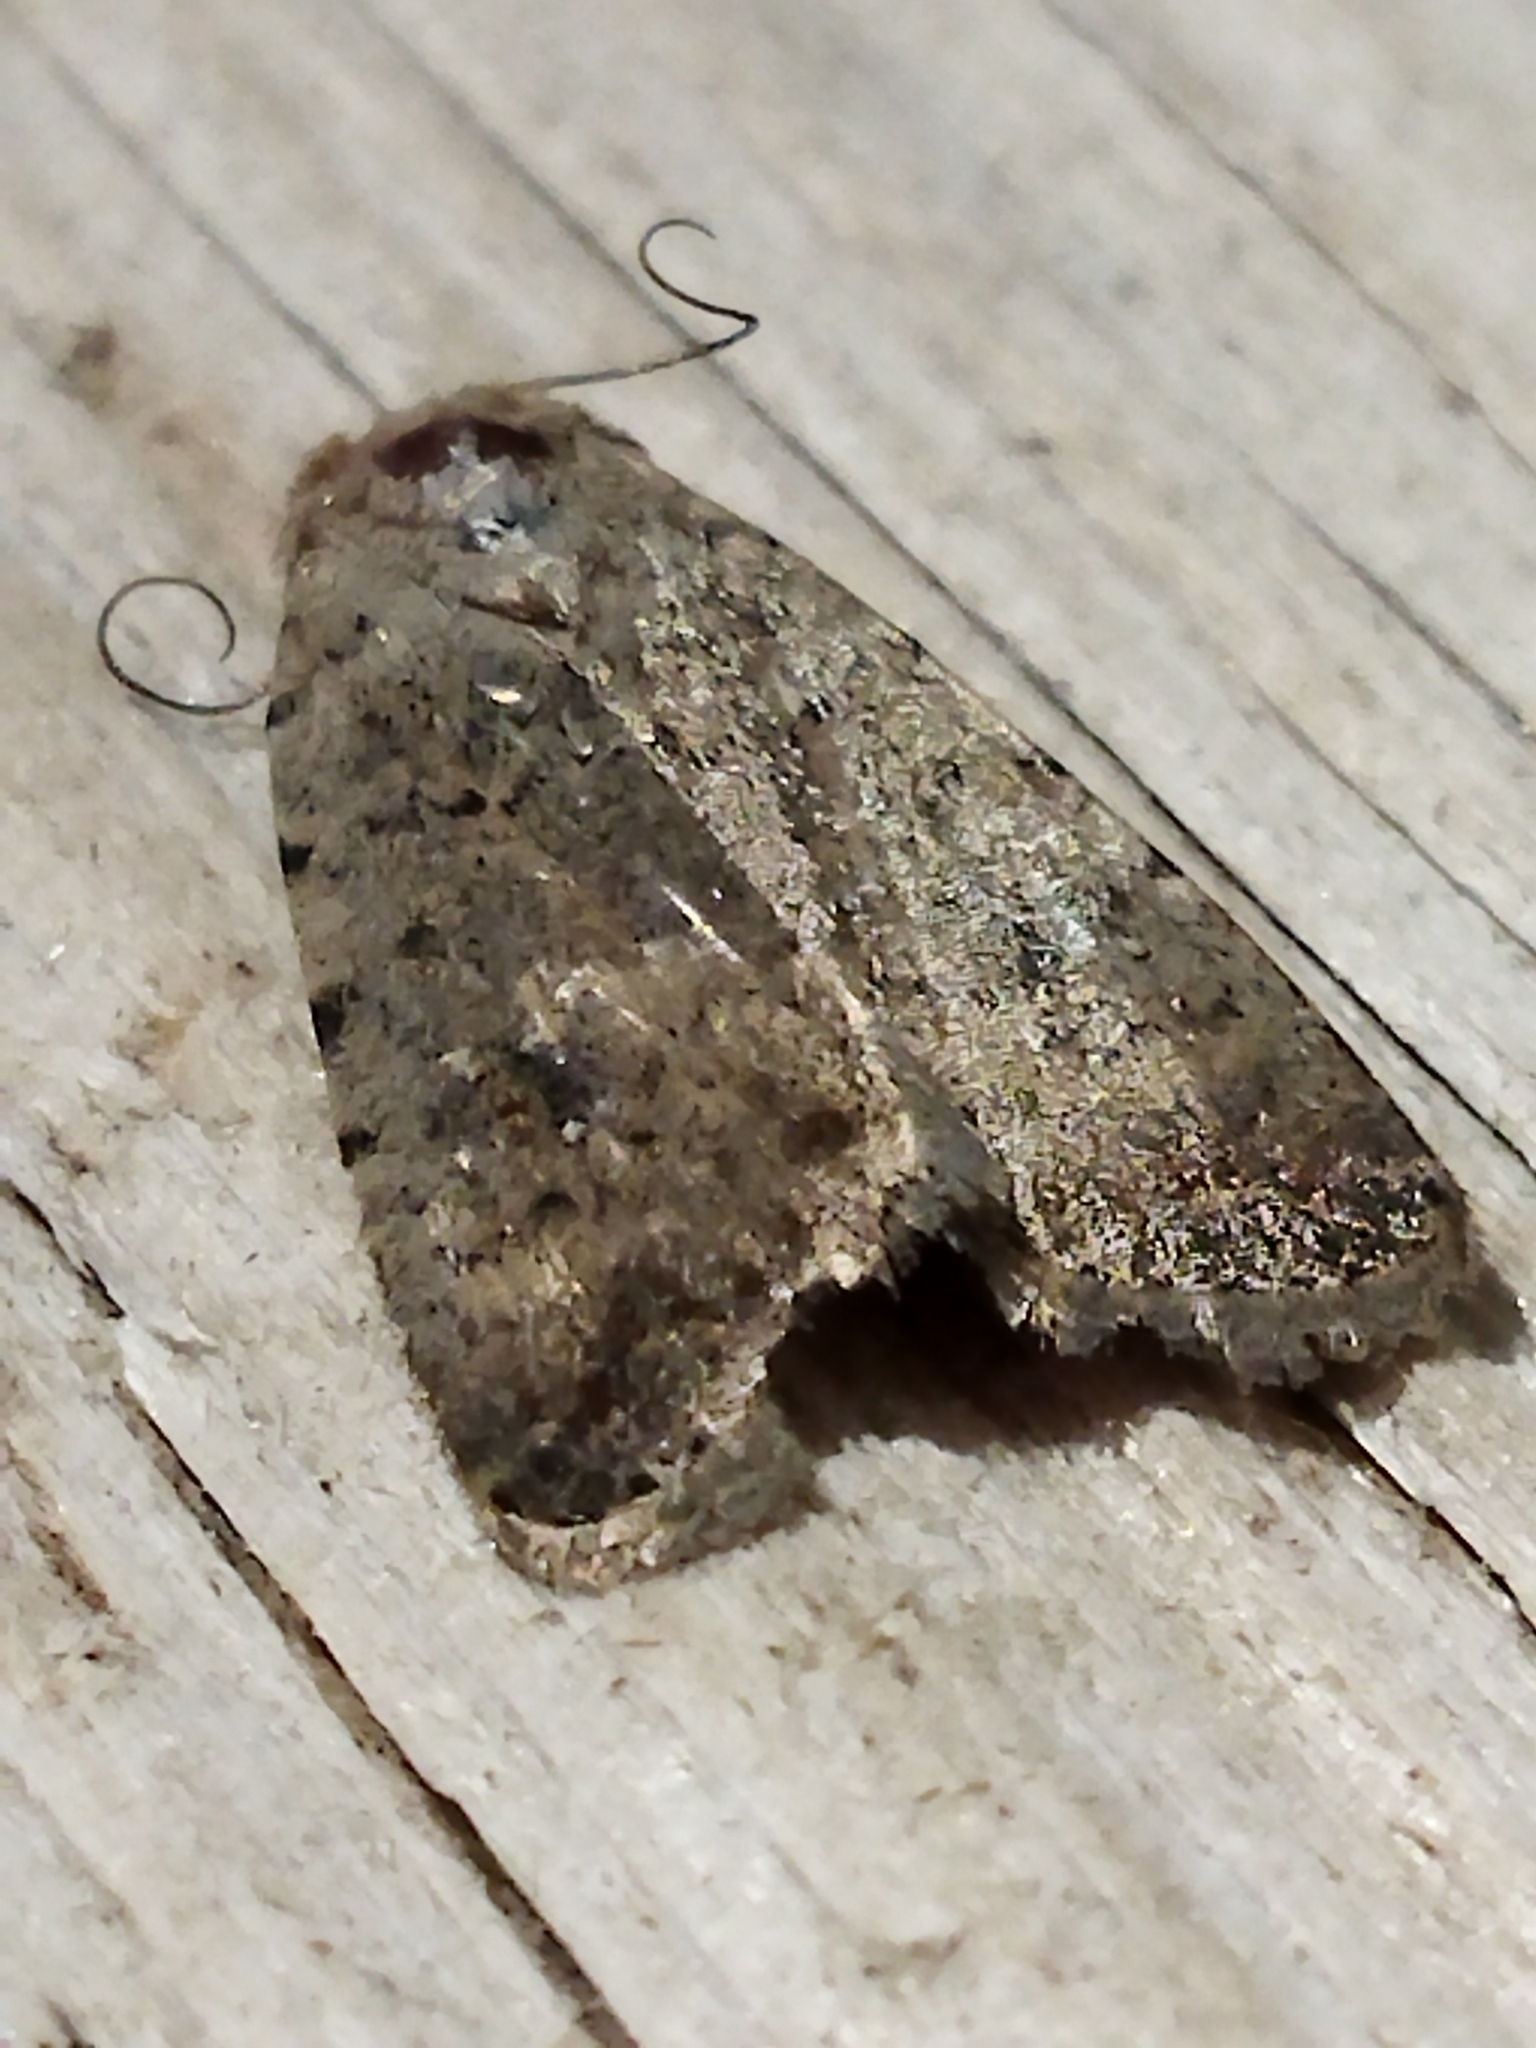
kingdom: Animalia
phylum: Arthropoda
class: Insecta
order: Lepidoptera
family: Noctuidae
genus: Caradrina
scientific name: Caradrina clavipalpis
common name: Pale mottled willow
